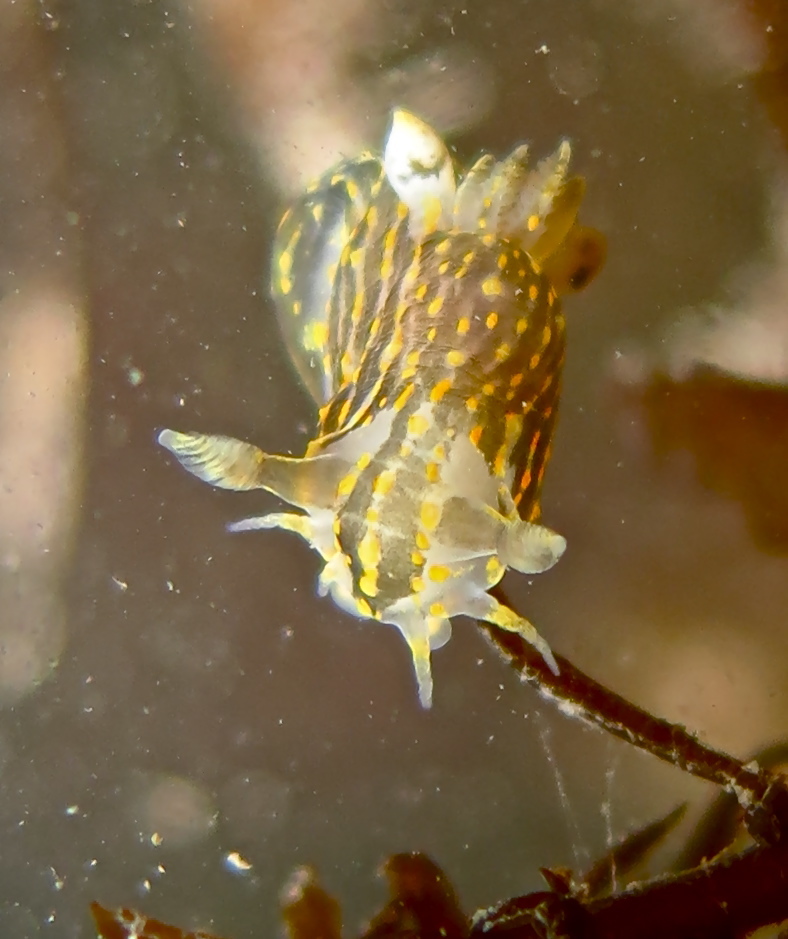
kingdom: Animalia
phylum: Mollusca
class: Gastropoda
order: Nudibranchia
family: Polyceridae
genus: Polycera
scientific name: Polycera quadrilineata
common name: Four-striped polycera
